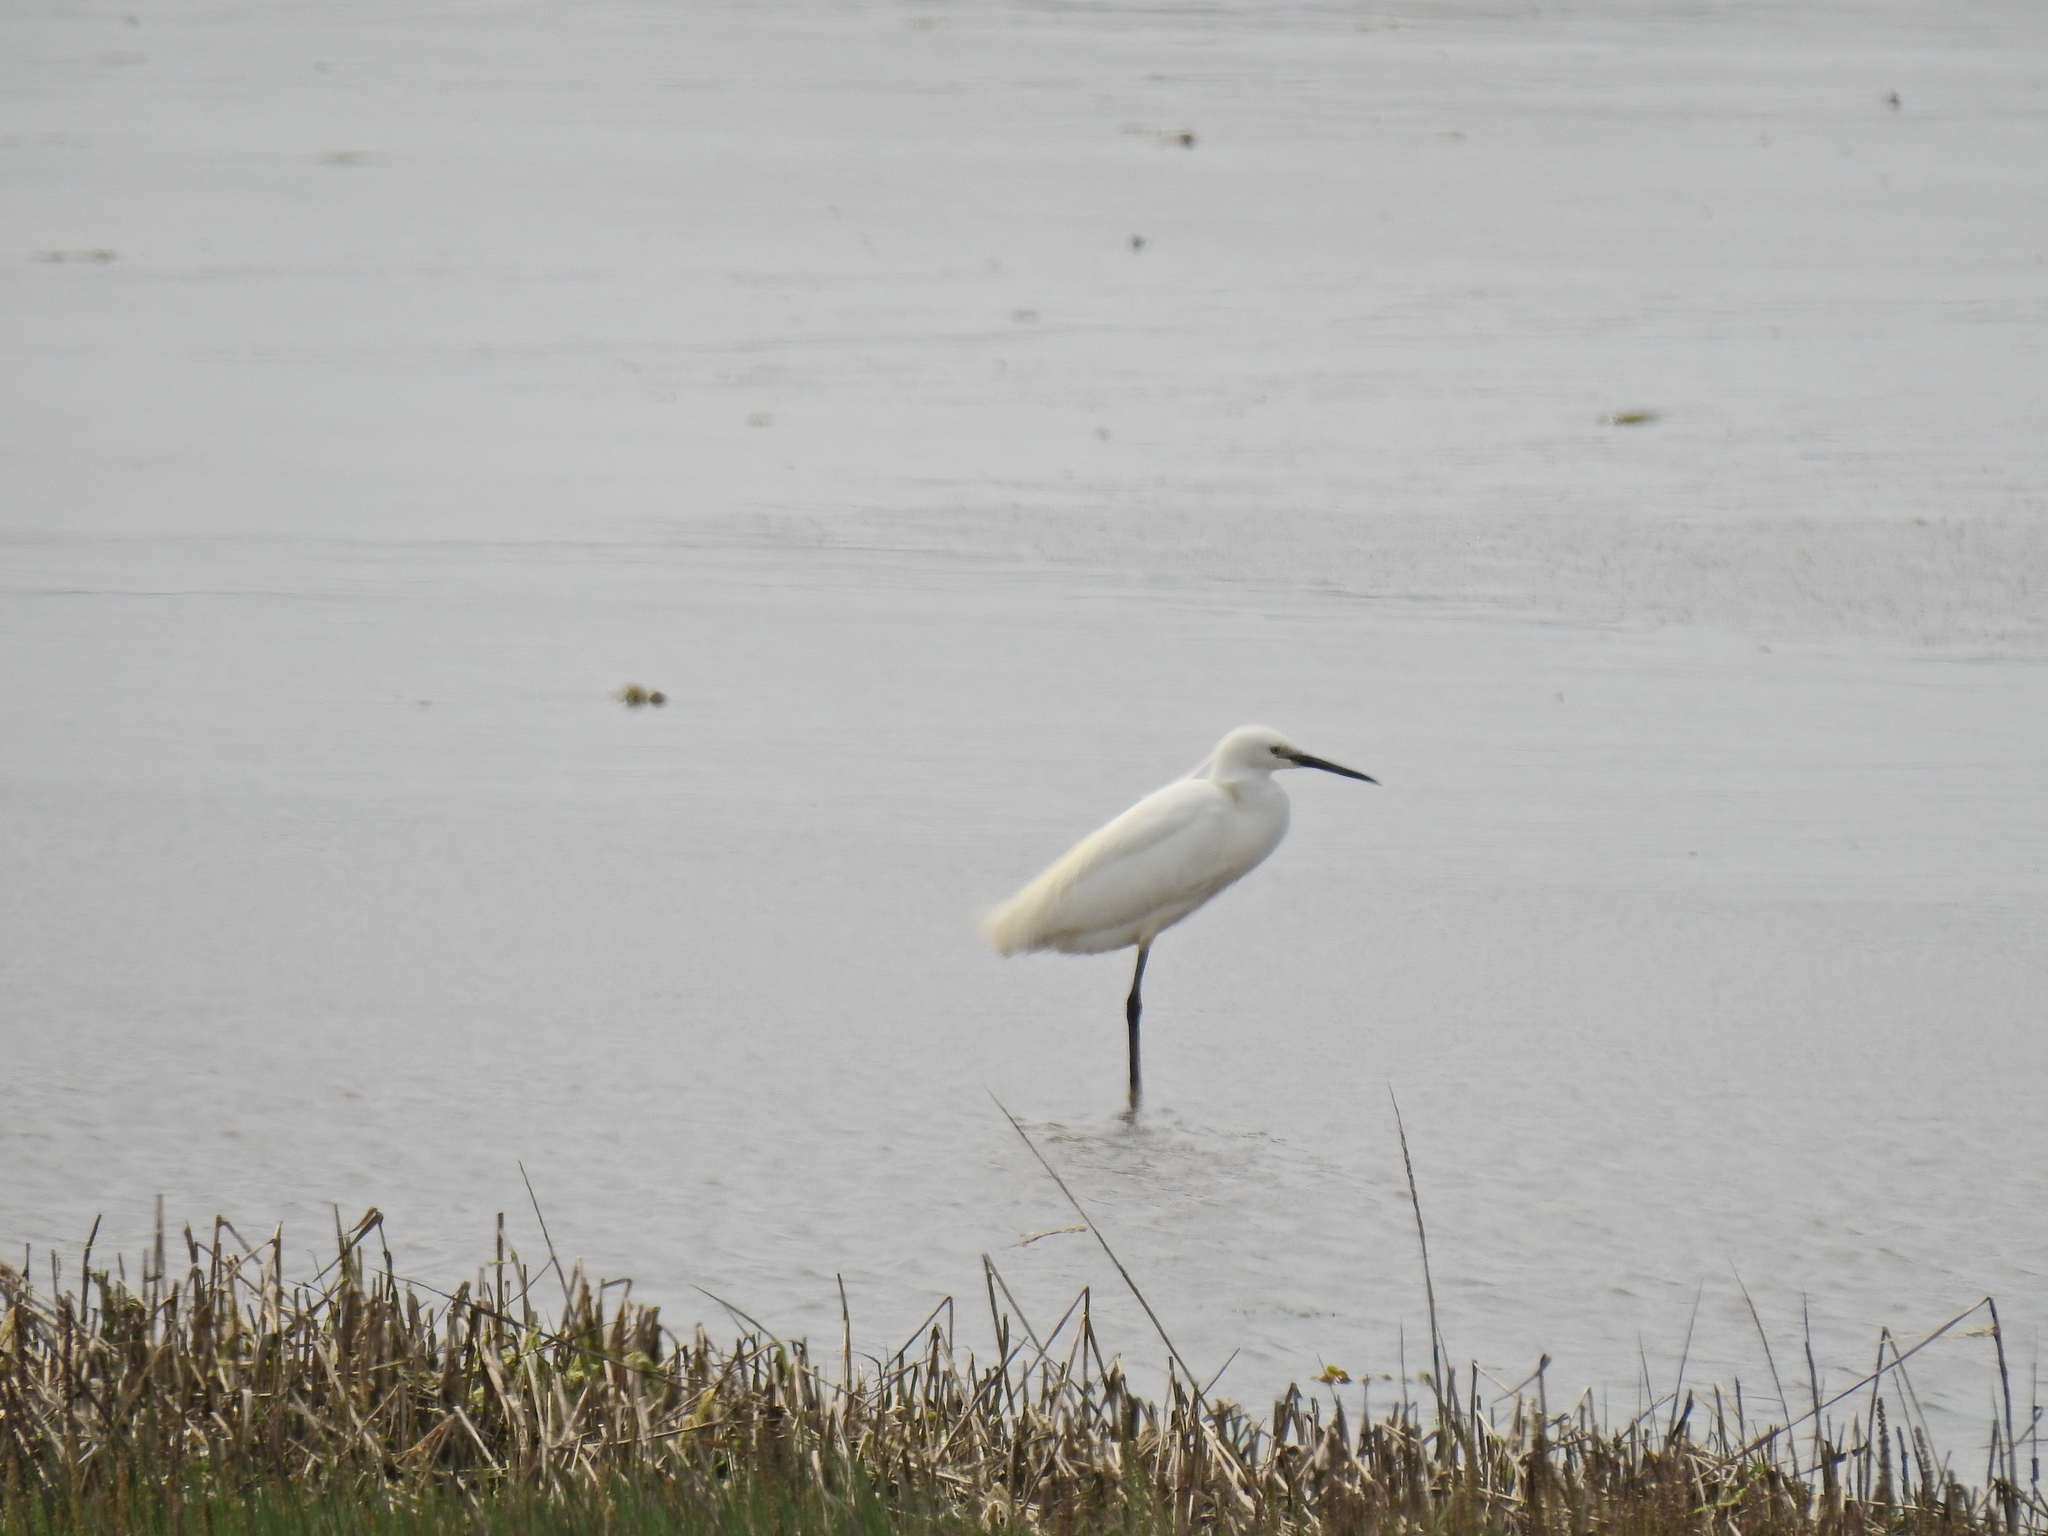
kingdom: Animalia
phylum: Chordata
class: Aves
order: Pelecaniformes
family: Ardeidae
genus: Egretta
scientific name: Egretta garzetta
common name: Little egret
